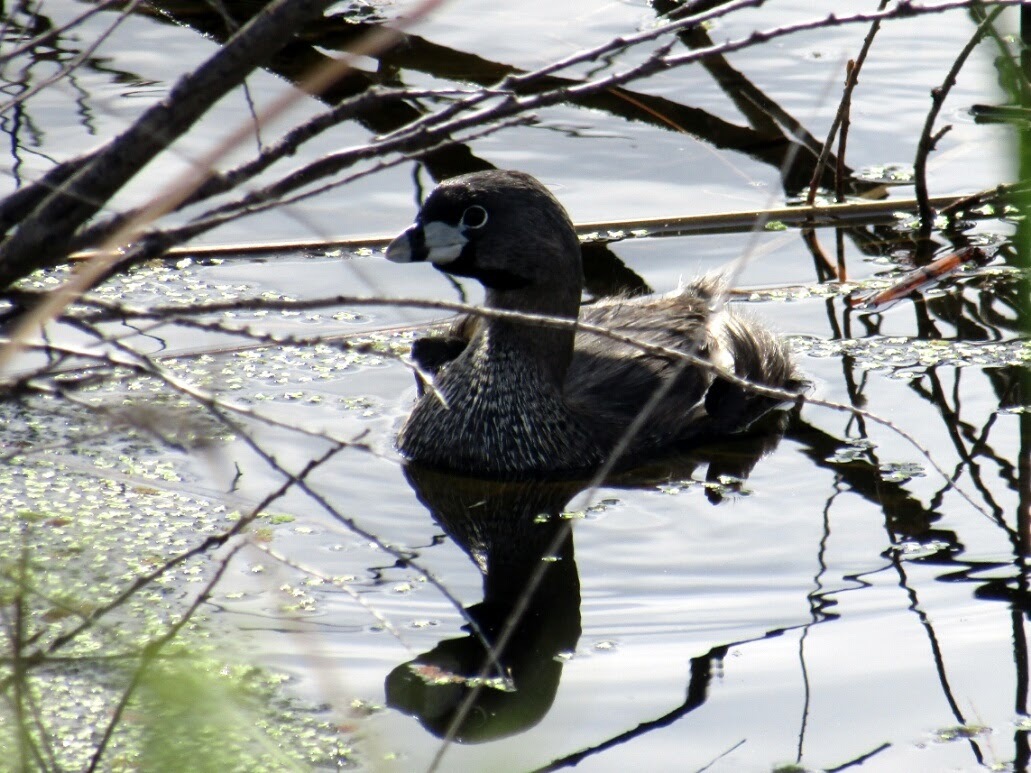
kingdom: Animalia
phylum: Chordata
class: Aves
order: Podicipediformes
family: Podicipedidae
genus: Podilymbus
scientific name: Podilymbus podiceps
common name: Pied-billed grebe
